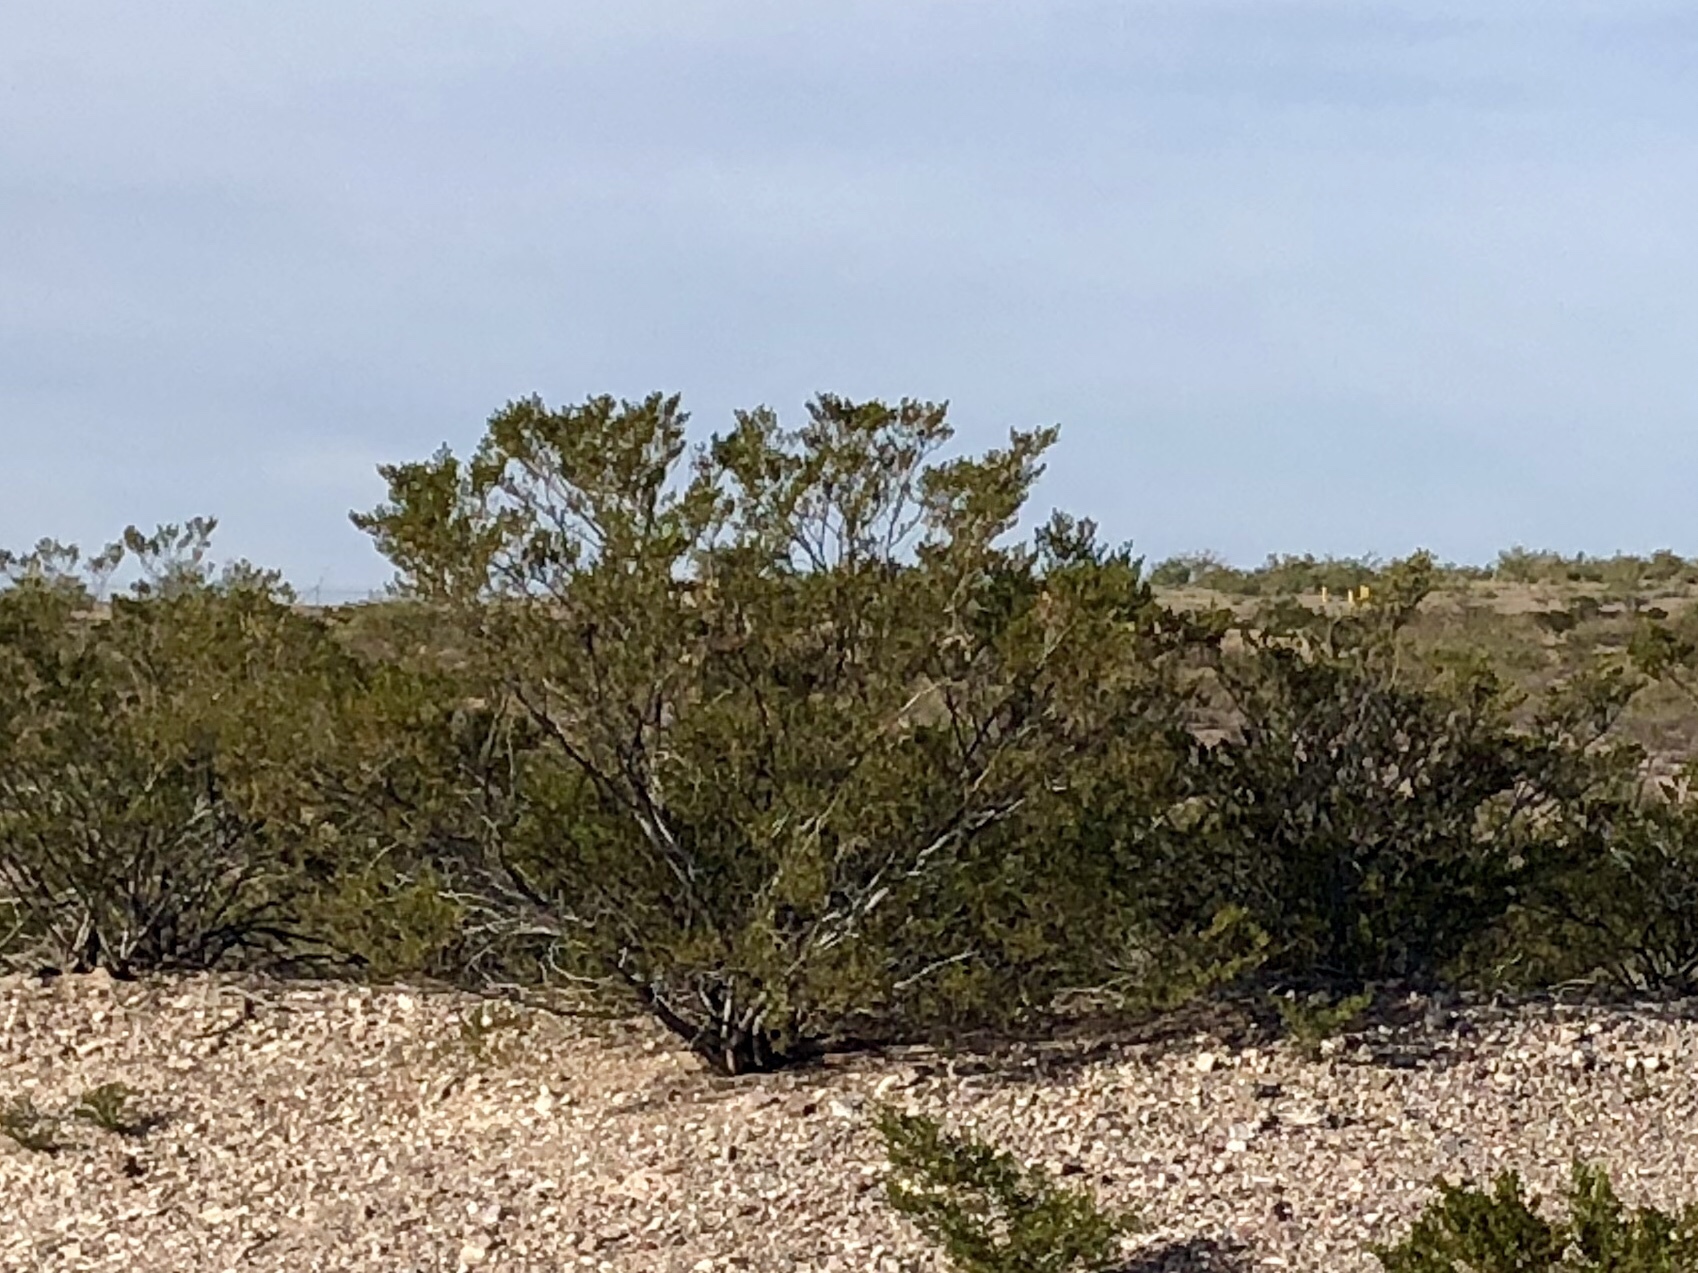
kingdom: Plantae
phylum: Tracheophyta
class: Magnoliopsida
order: Zygophyllales
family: Zygophyllaceae
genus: Larrea
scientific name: Larrea tridentata
